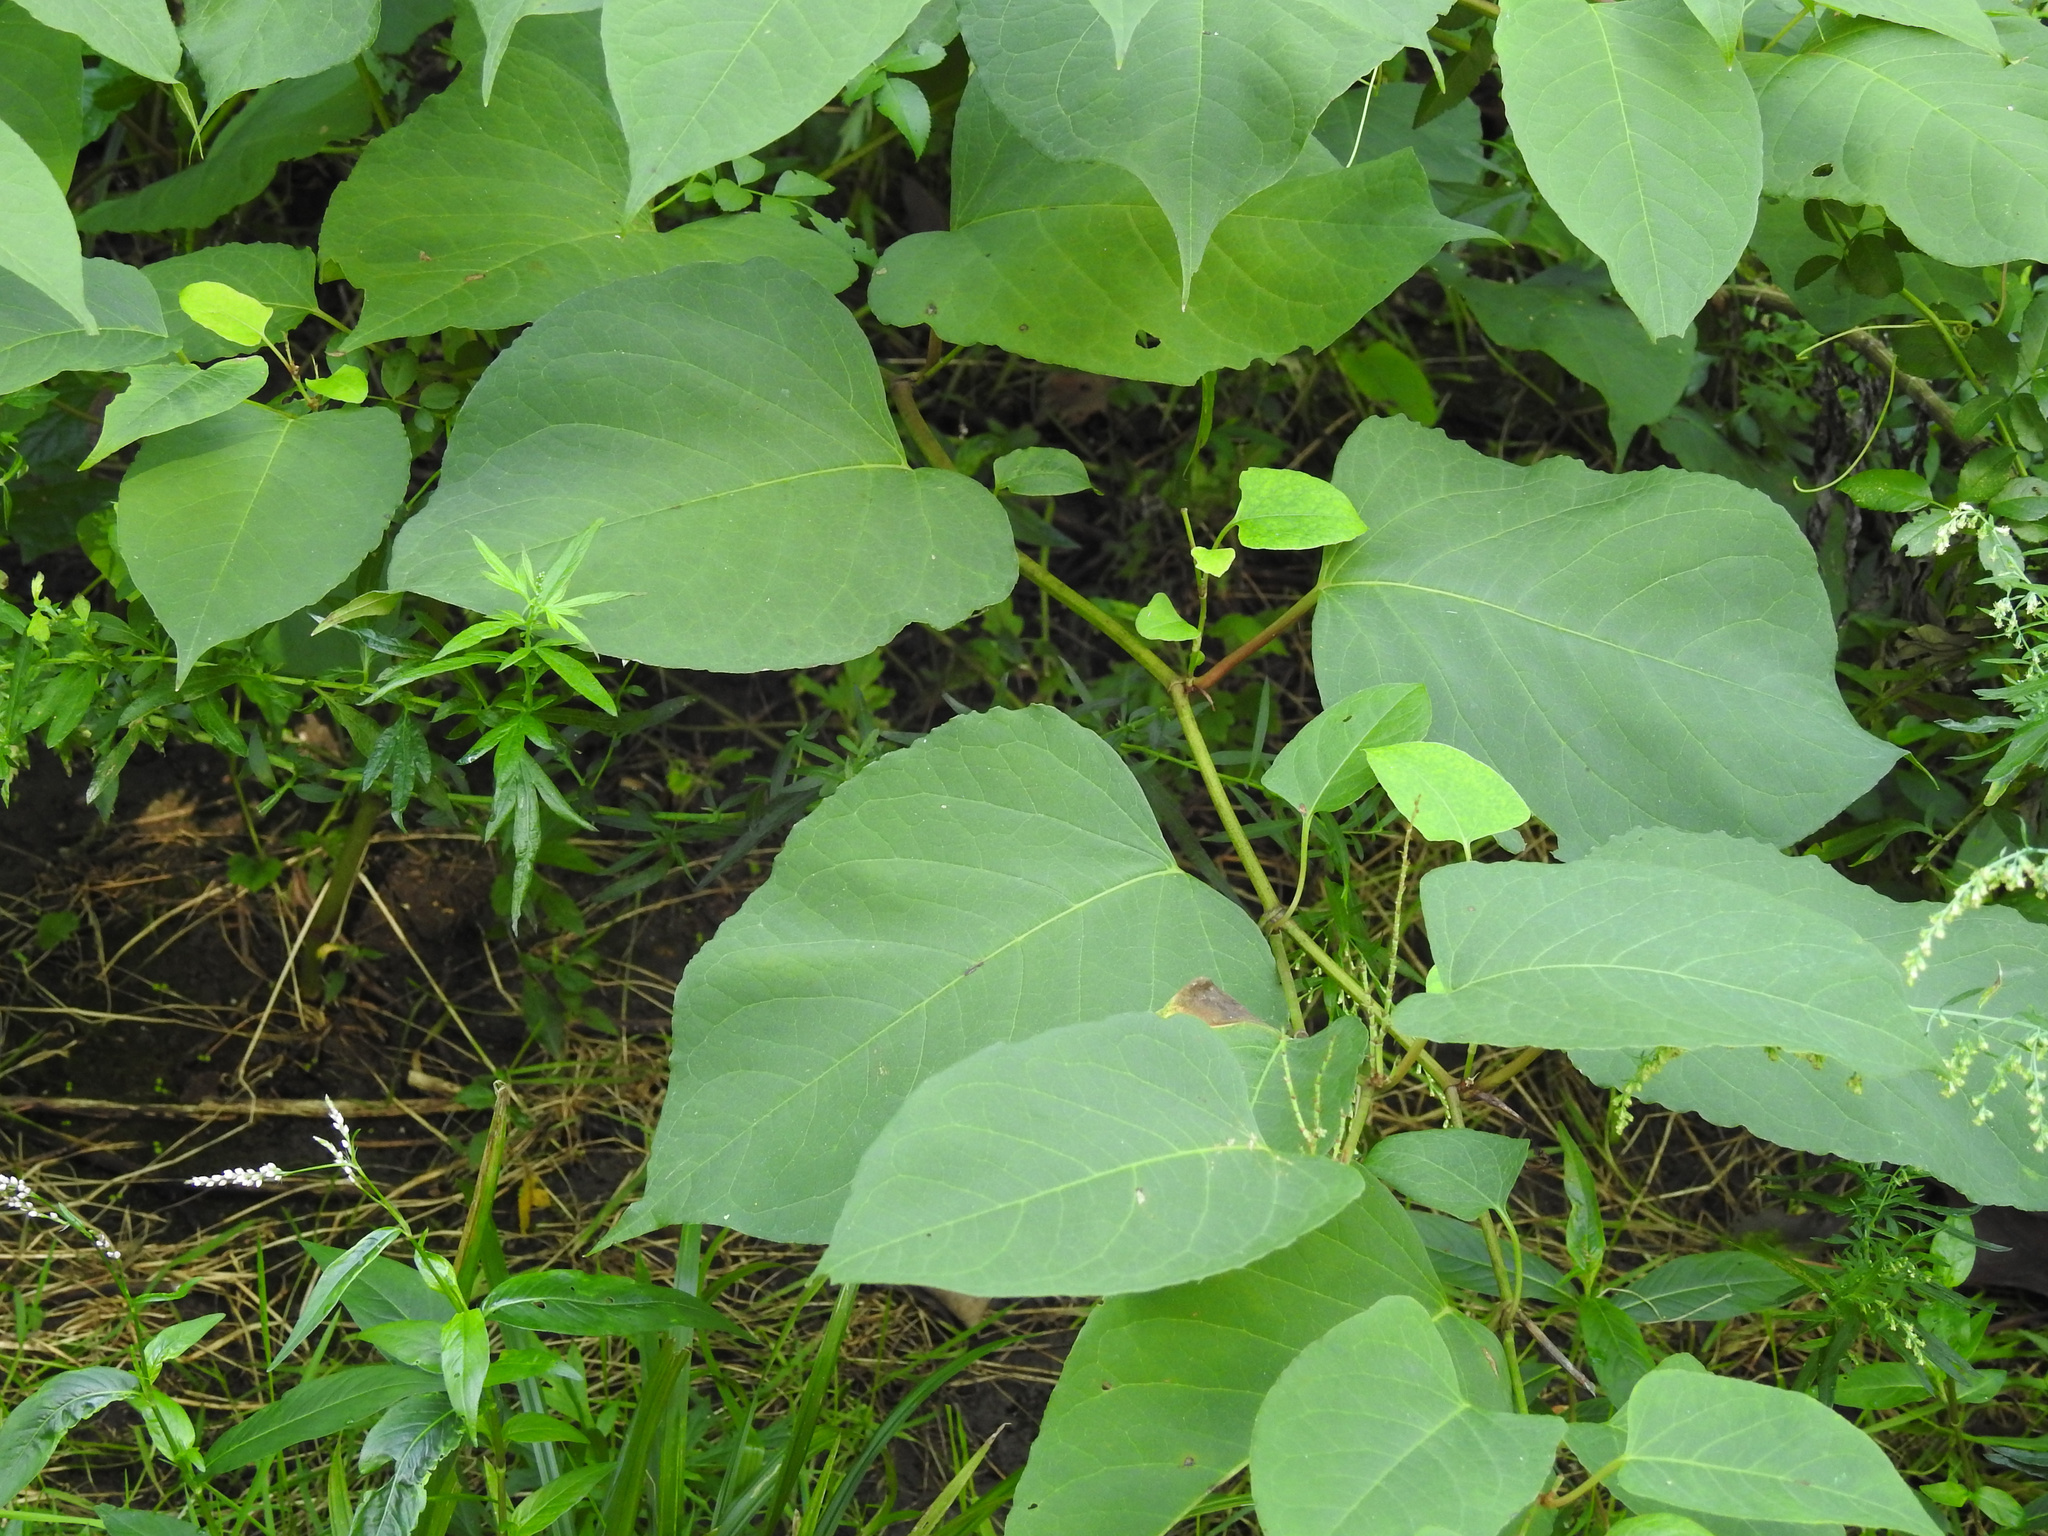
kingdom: Plantae
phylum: Tracheophyta
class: Magnoliopsida
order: Caryophyllales
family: Polygonaceae
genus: Reynoutria
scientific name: Reynoutria japonica
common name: Japanese knotweed
